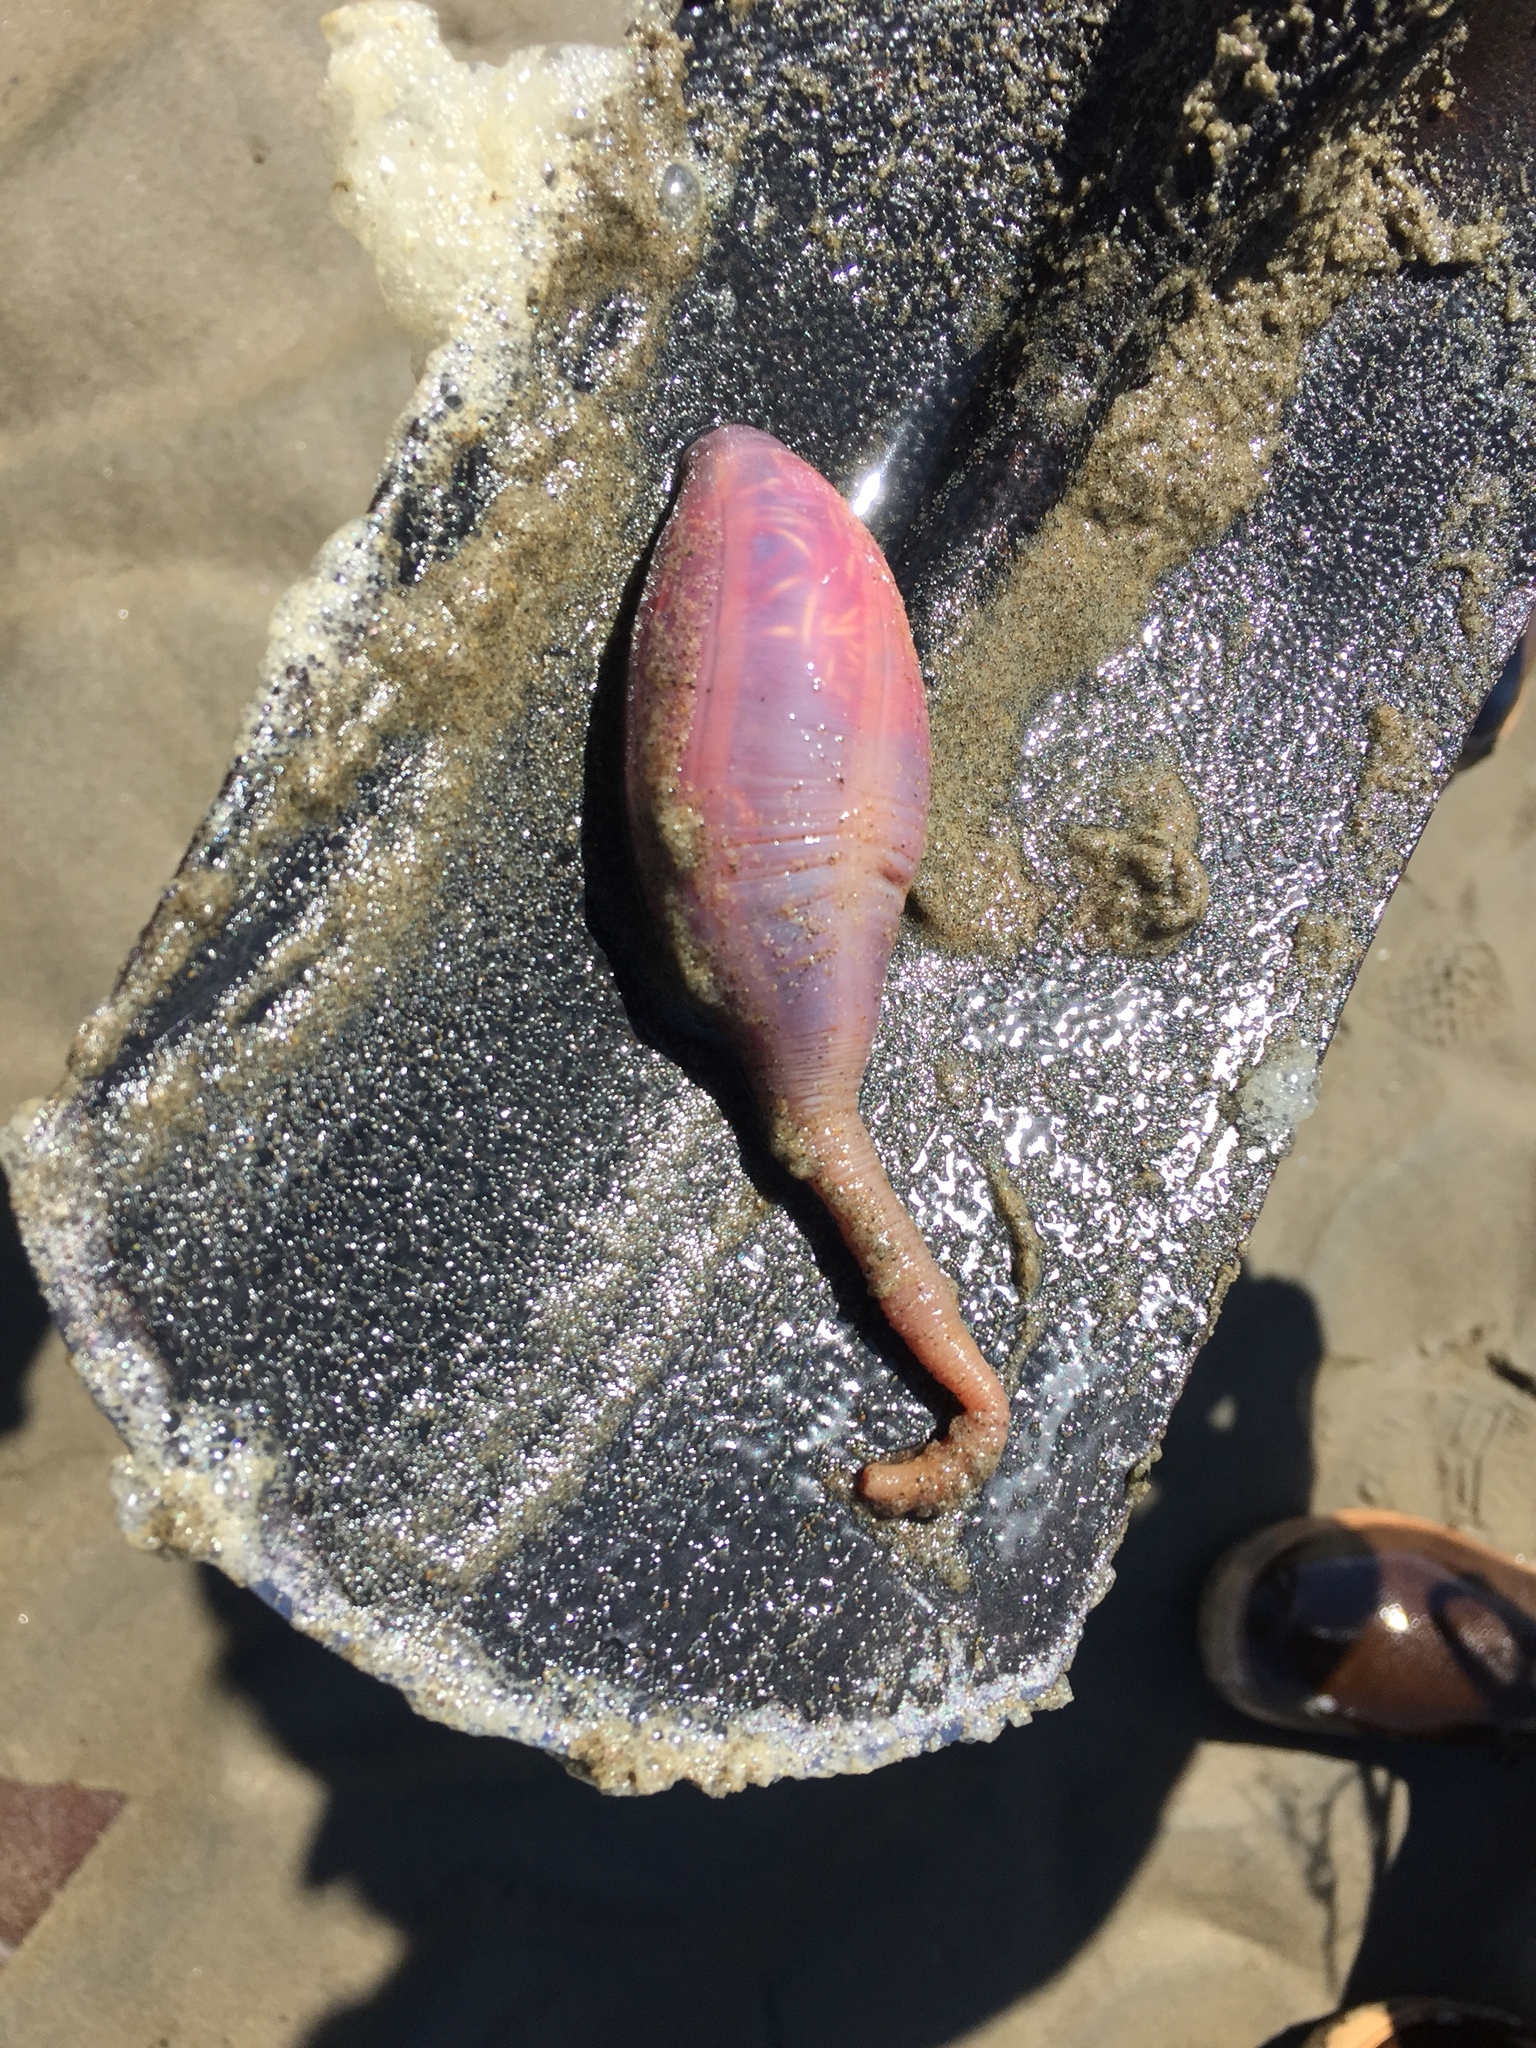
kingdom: Animalia
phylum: Echinodermata
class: Holothuroidea
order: Molpadida
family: Caudinidae
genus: Paracaudina
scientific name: Paracaudina chilensis
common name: Rat-tailed fusiform sea cucumber
